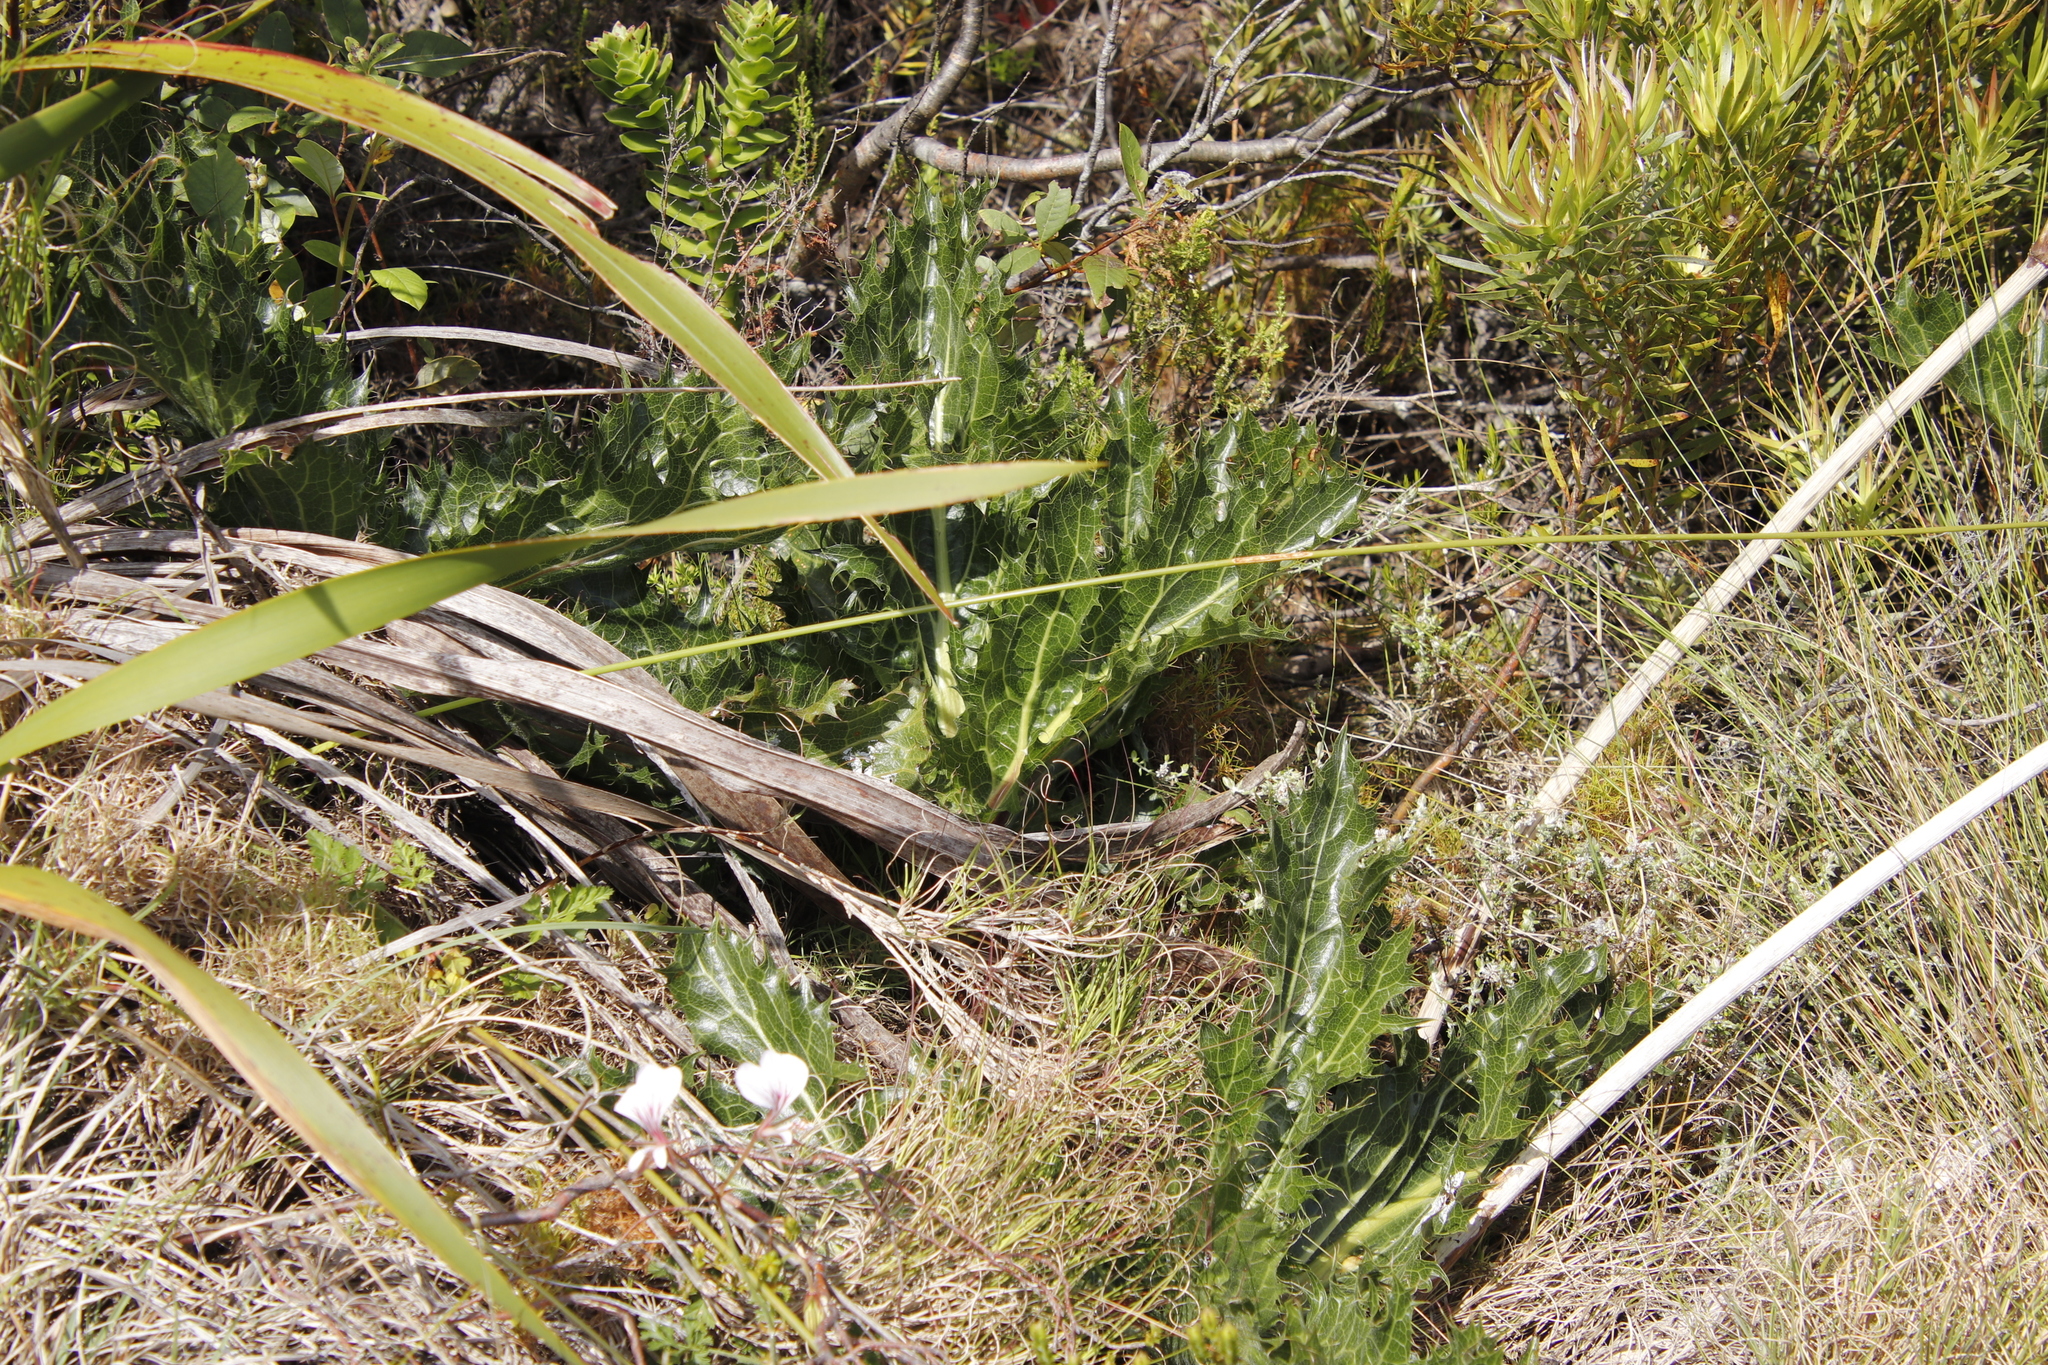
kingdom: Plantae
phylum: Tracheophyta
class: Magnoliopsida
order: Apiales
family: Apiaceae
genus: Lichtensteinia
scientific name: Lichtensteinia lacera
